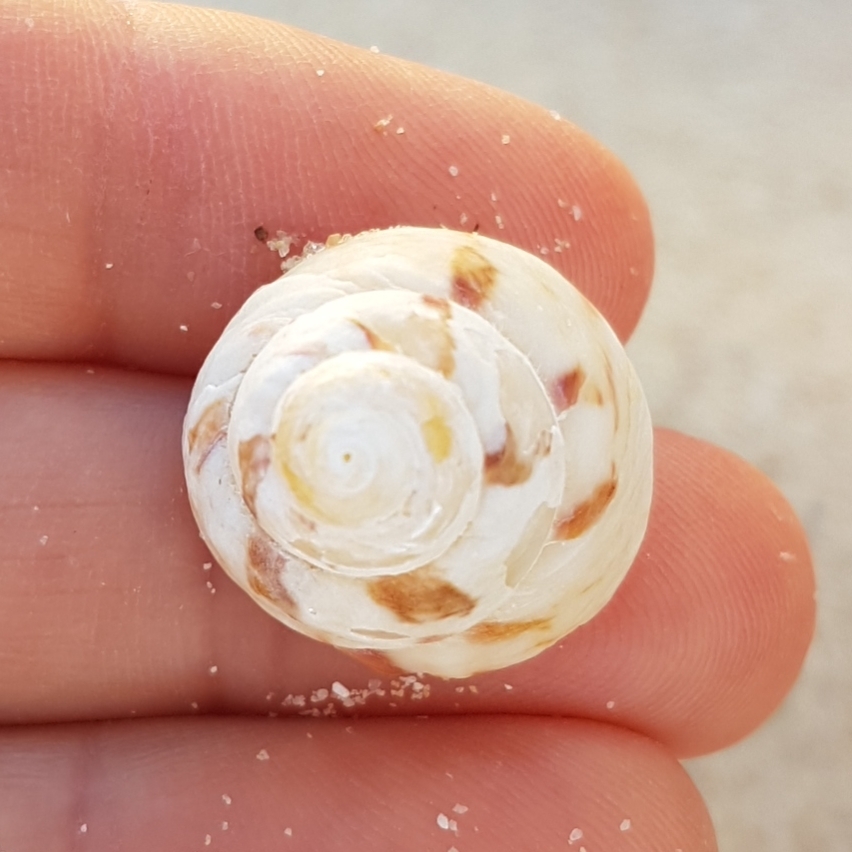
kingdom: Animalia
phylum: Mollusca
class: Gastropoda
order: Trochida
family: Trochidae
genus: Gibbula
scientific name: Gibbula magus
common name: Turban top shell
